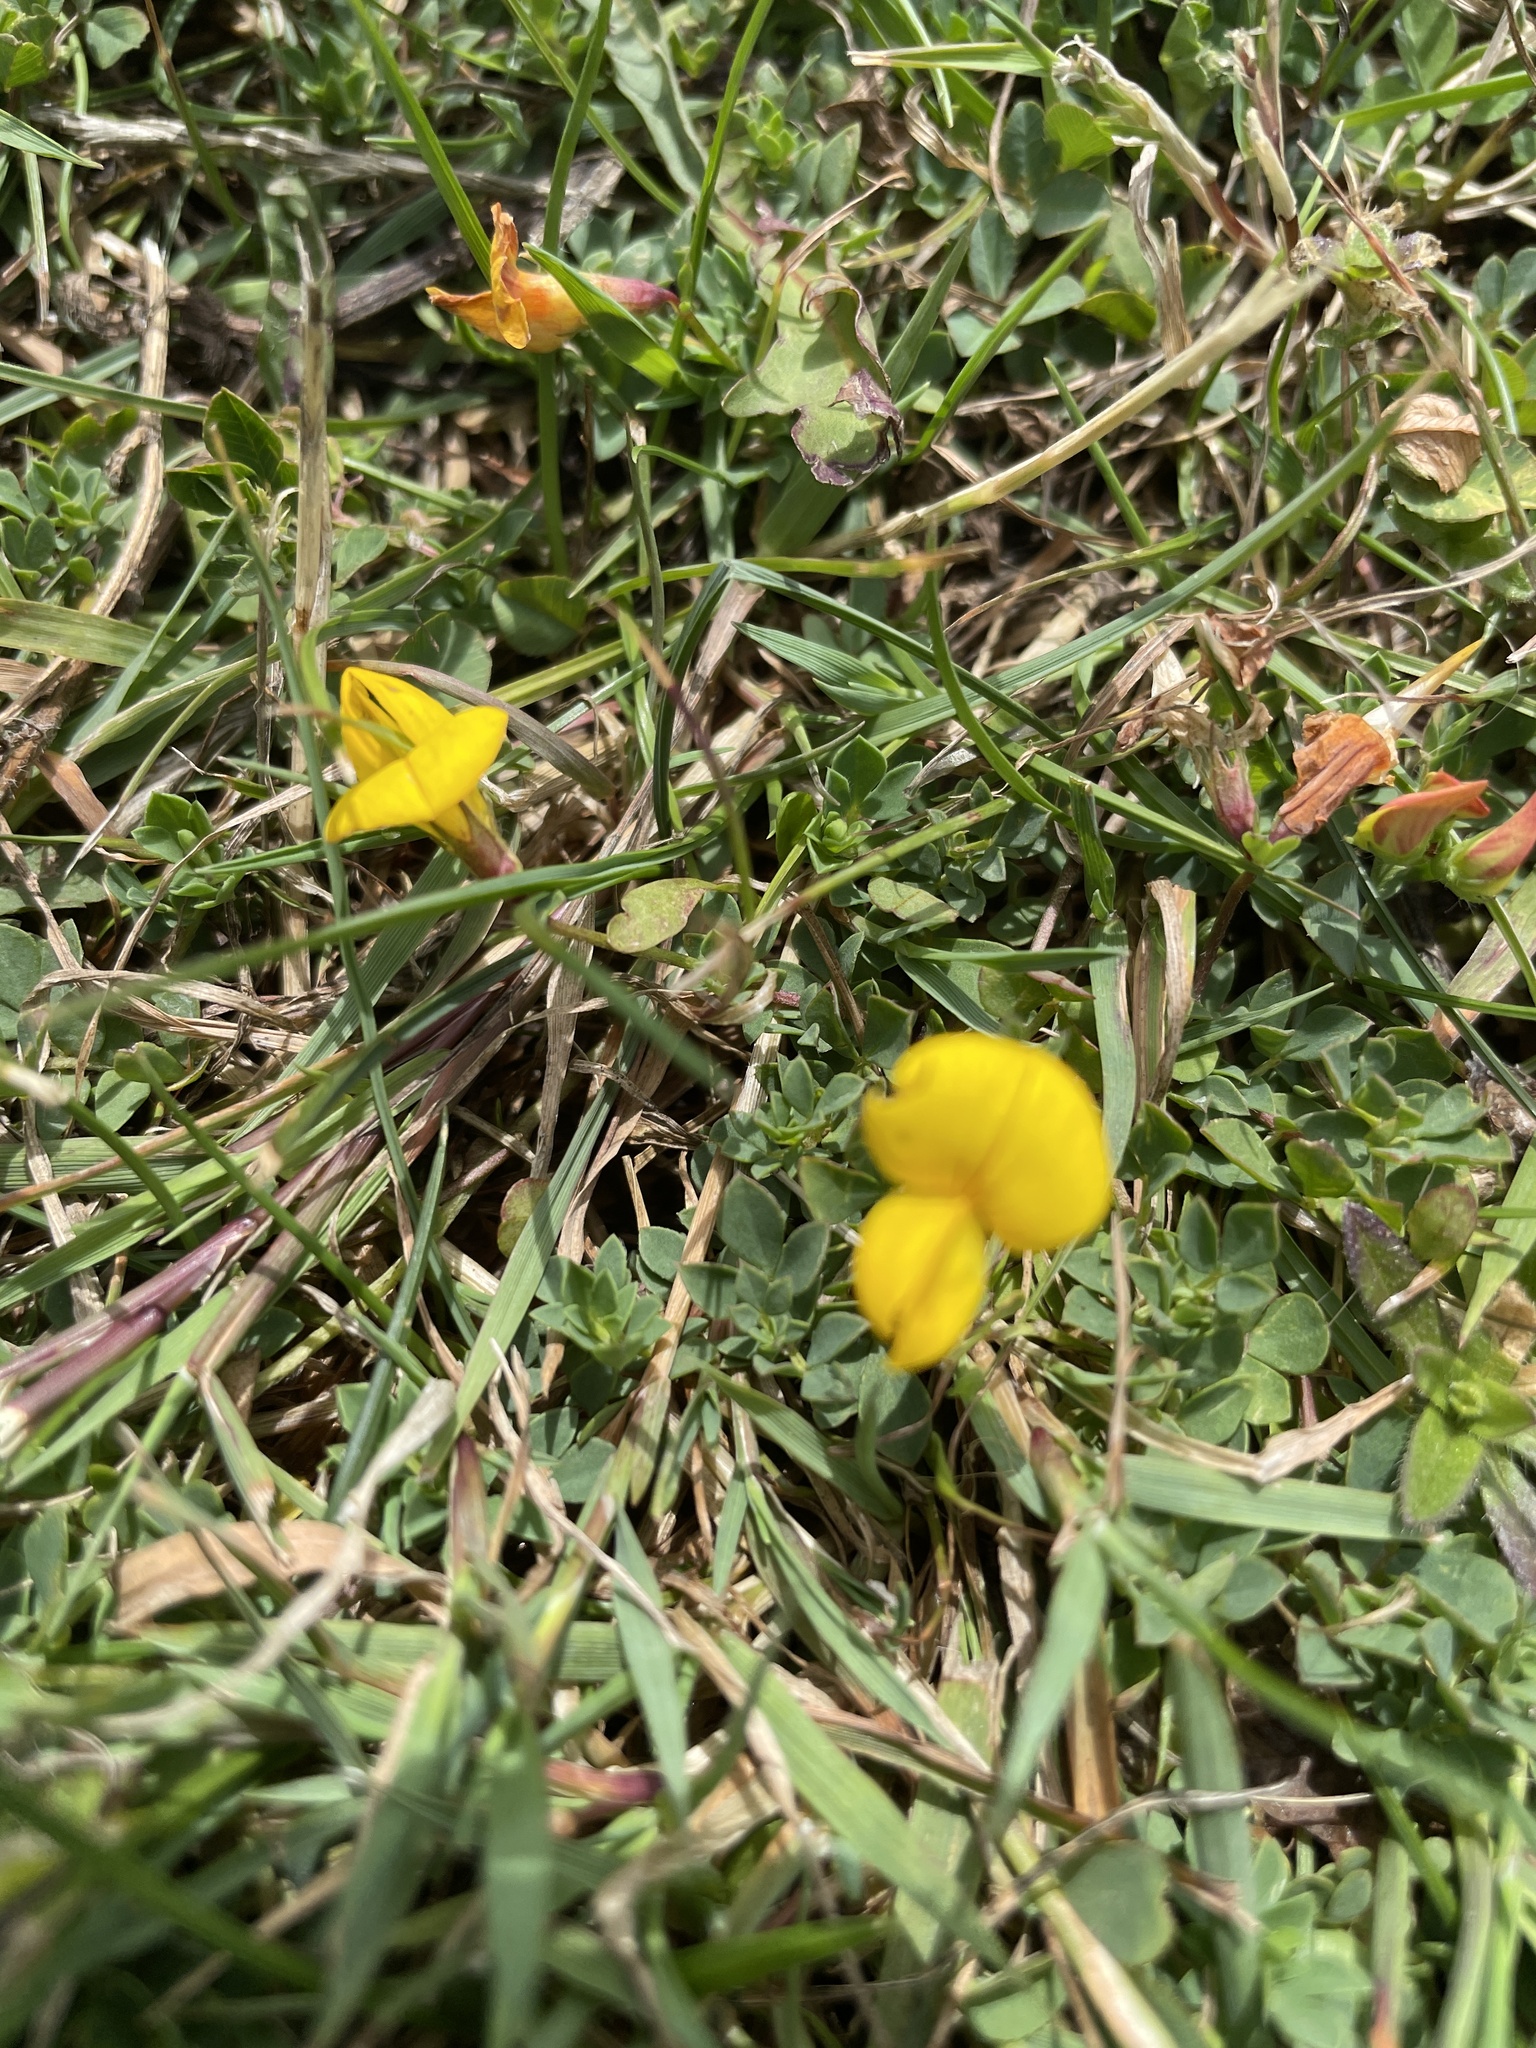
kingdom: Plantae
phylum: Tracheophyta
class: Magnoliopsida
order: Fabales
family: Fabaceae
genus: Lotus
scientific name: Lotus corniculatus
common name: Common bird's-foot-trefoil
